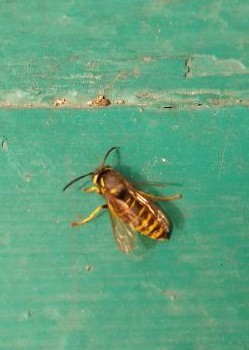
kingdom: Animalia
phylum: Arthropoda
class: Insecta
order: Hymenoptera
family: Vespidae
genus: Vespula
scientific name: Vespula vidua
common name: Widow yellowjacket
